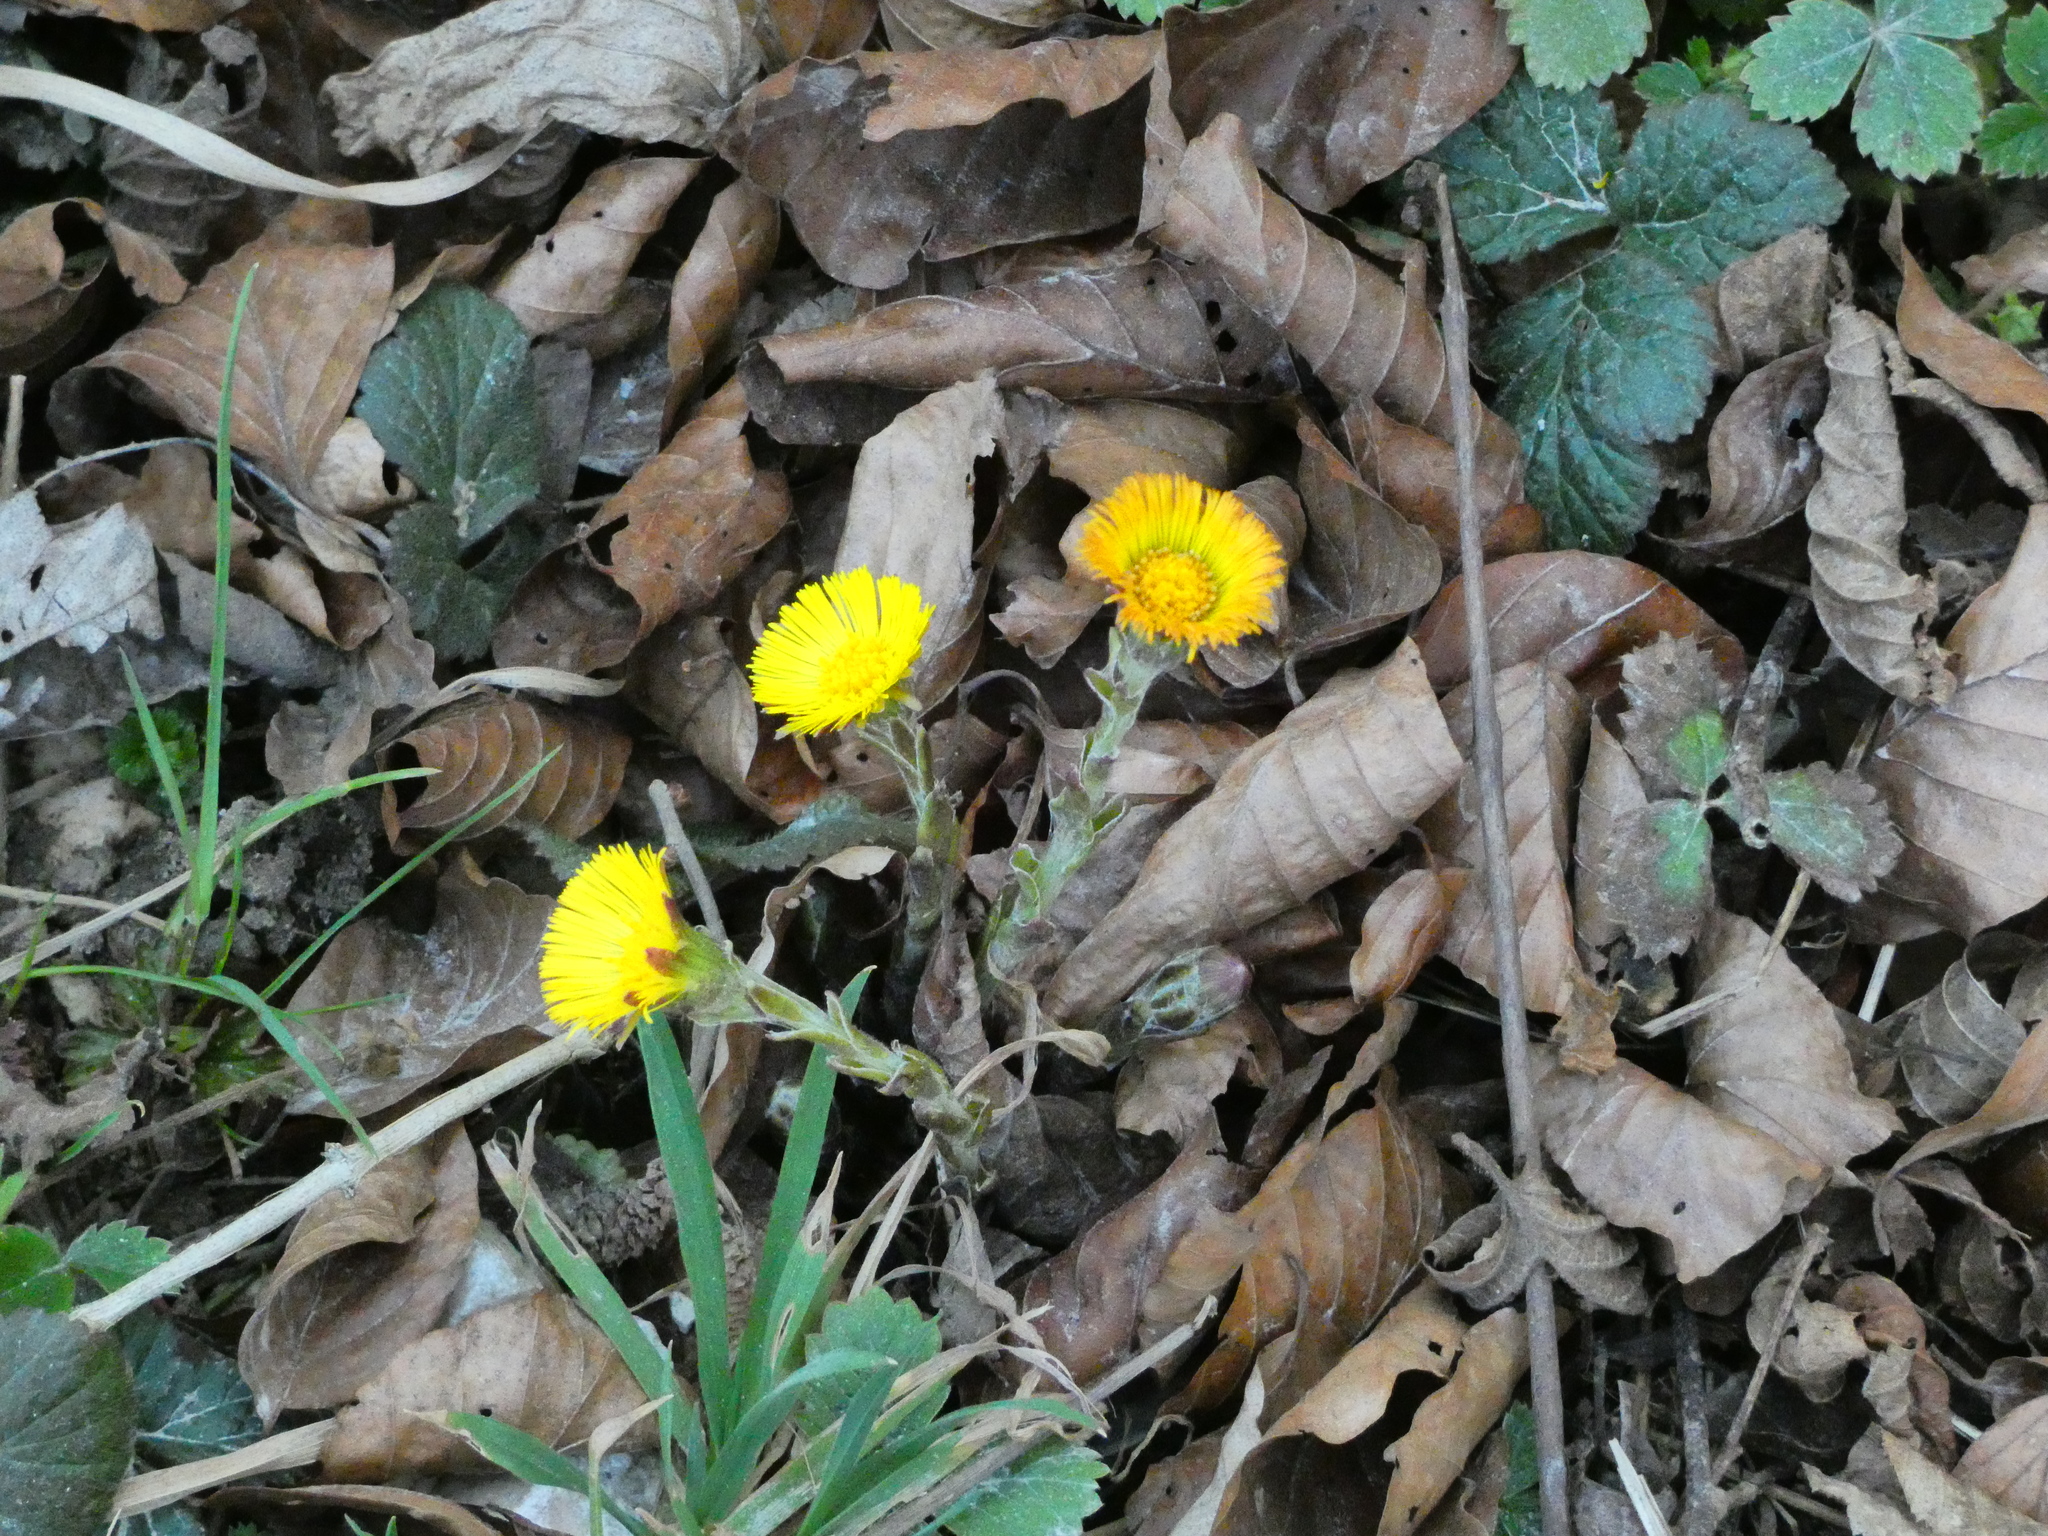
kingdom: Plantae
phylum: Tracheophyta
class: Magnoliopsida
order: Asterales
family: Asteraceae
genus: Tussilago
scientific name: Tussilago farfara
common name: Coltsfoot
